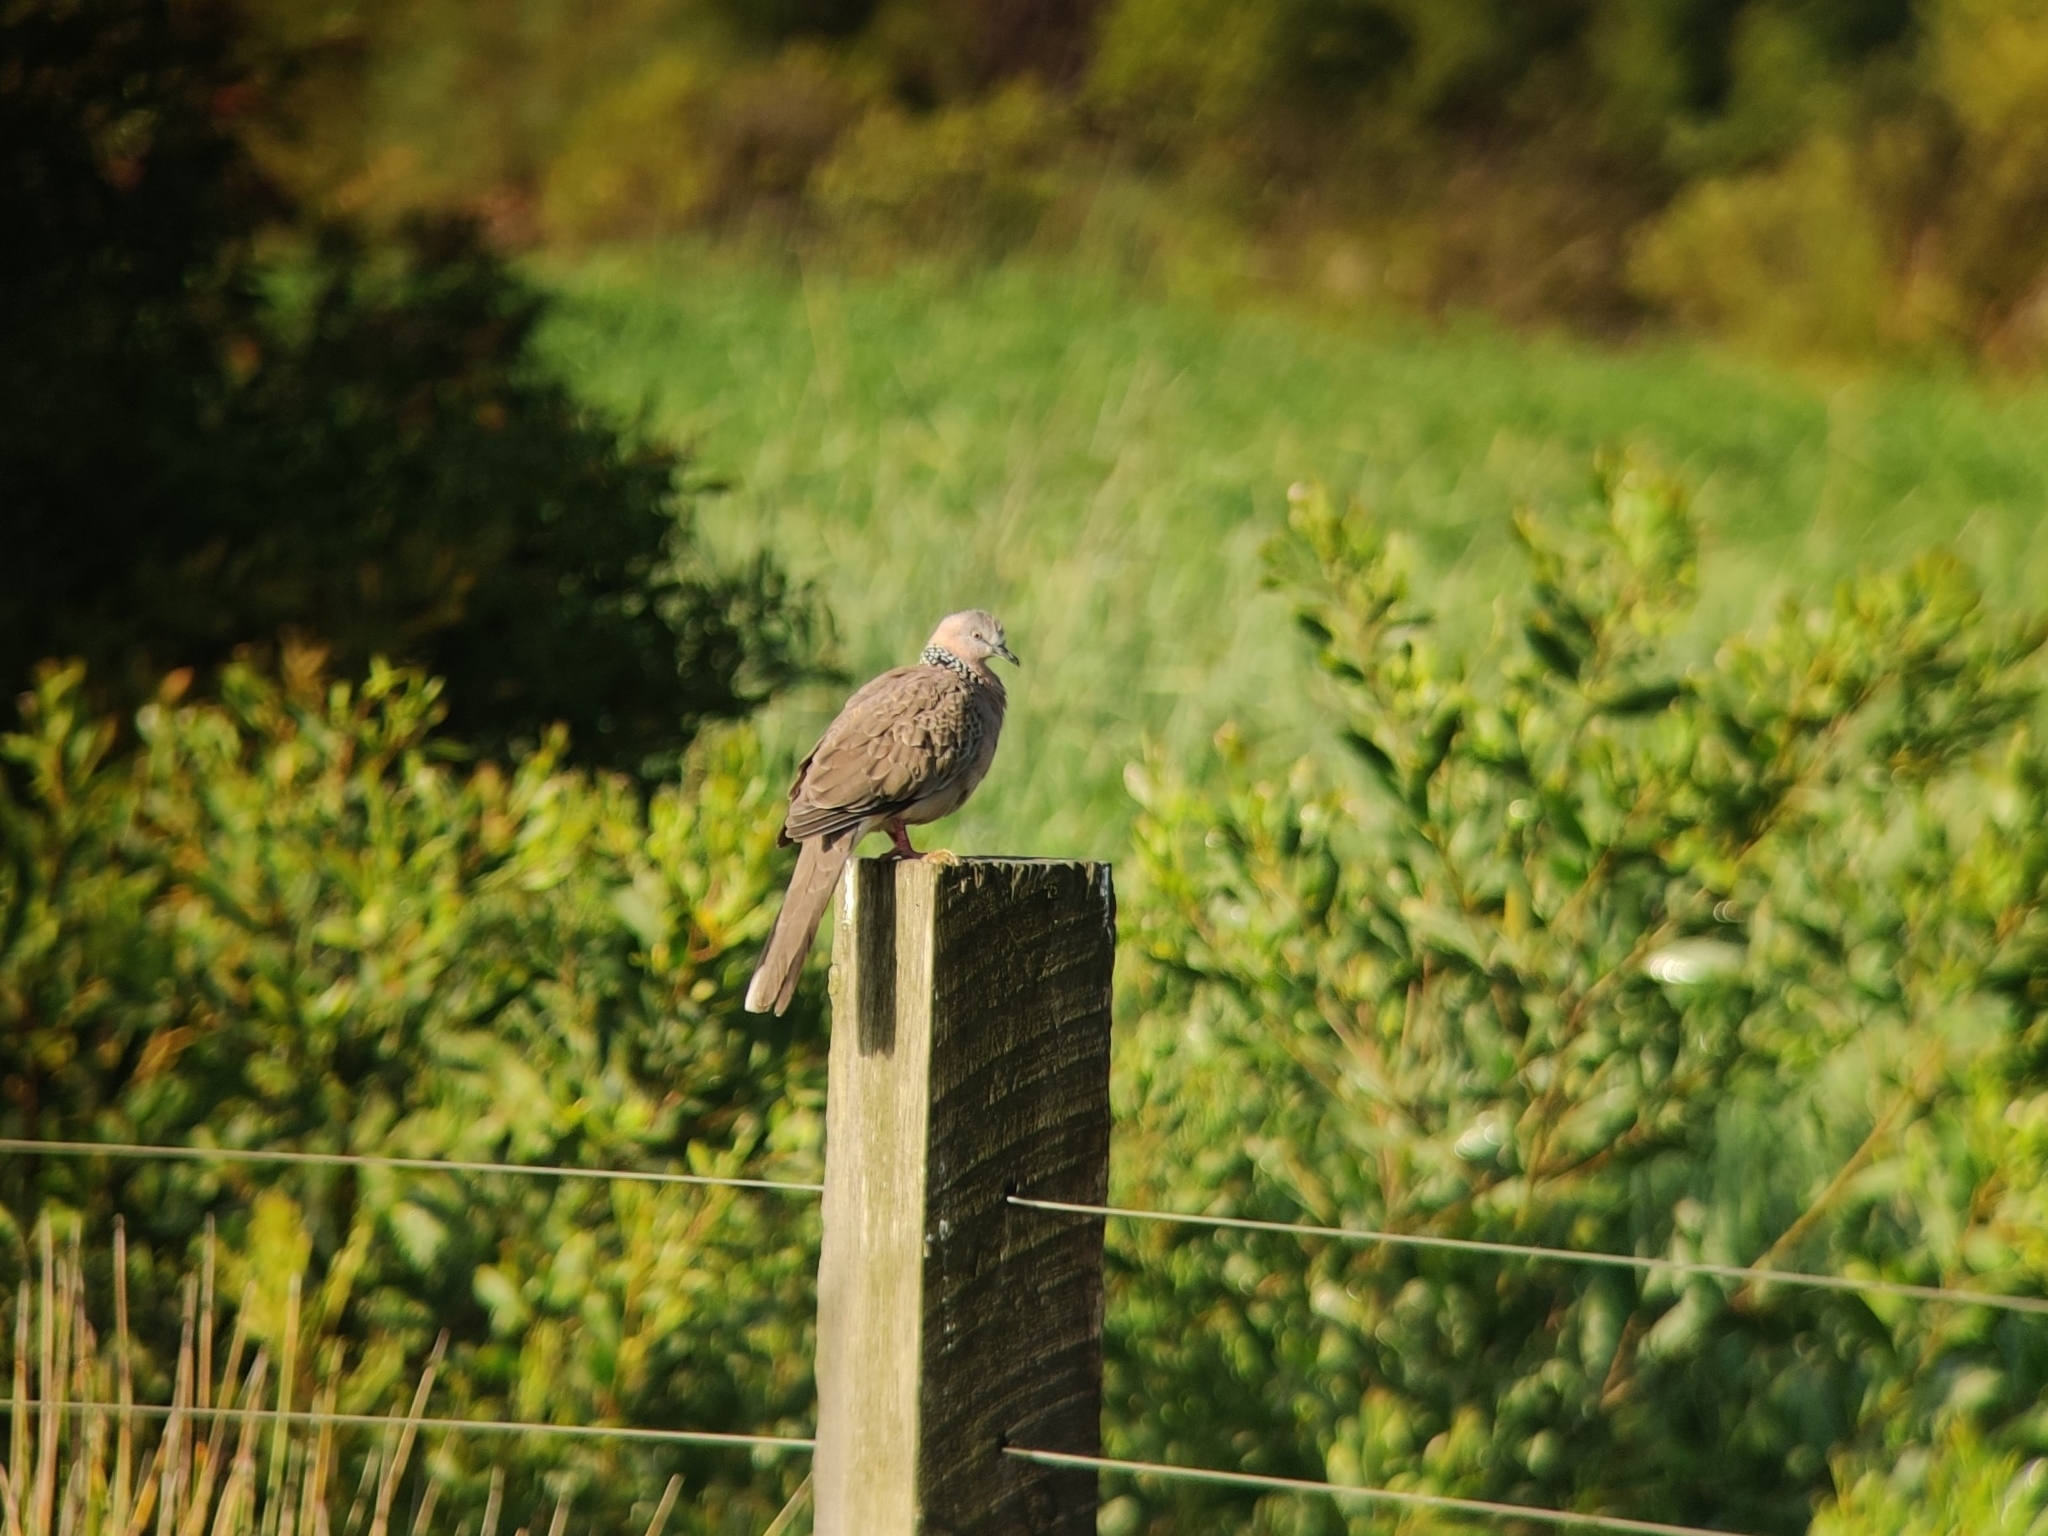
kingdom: Animalia
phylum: Chordata
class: Aves
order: Columbiformes
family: Columbidae
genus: Spilopelia
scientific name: Spilopelia chinensis
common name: Spotted dove
